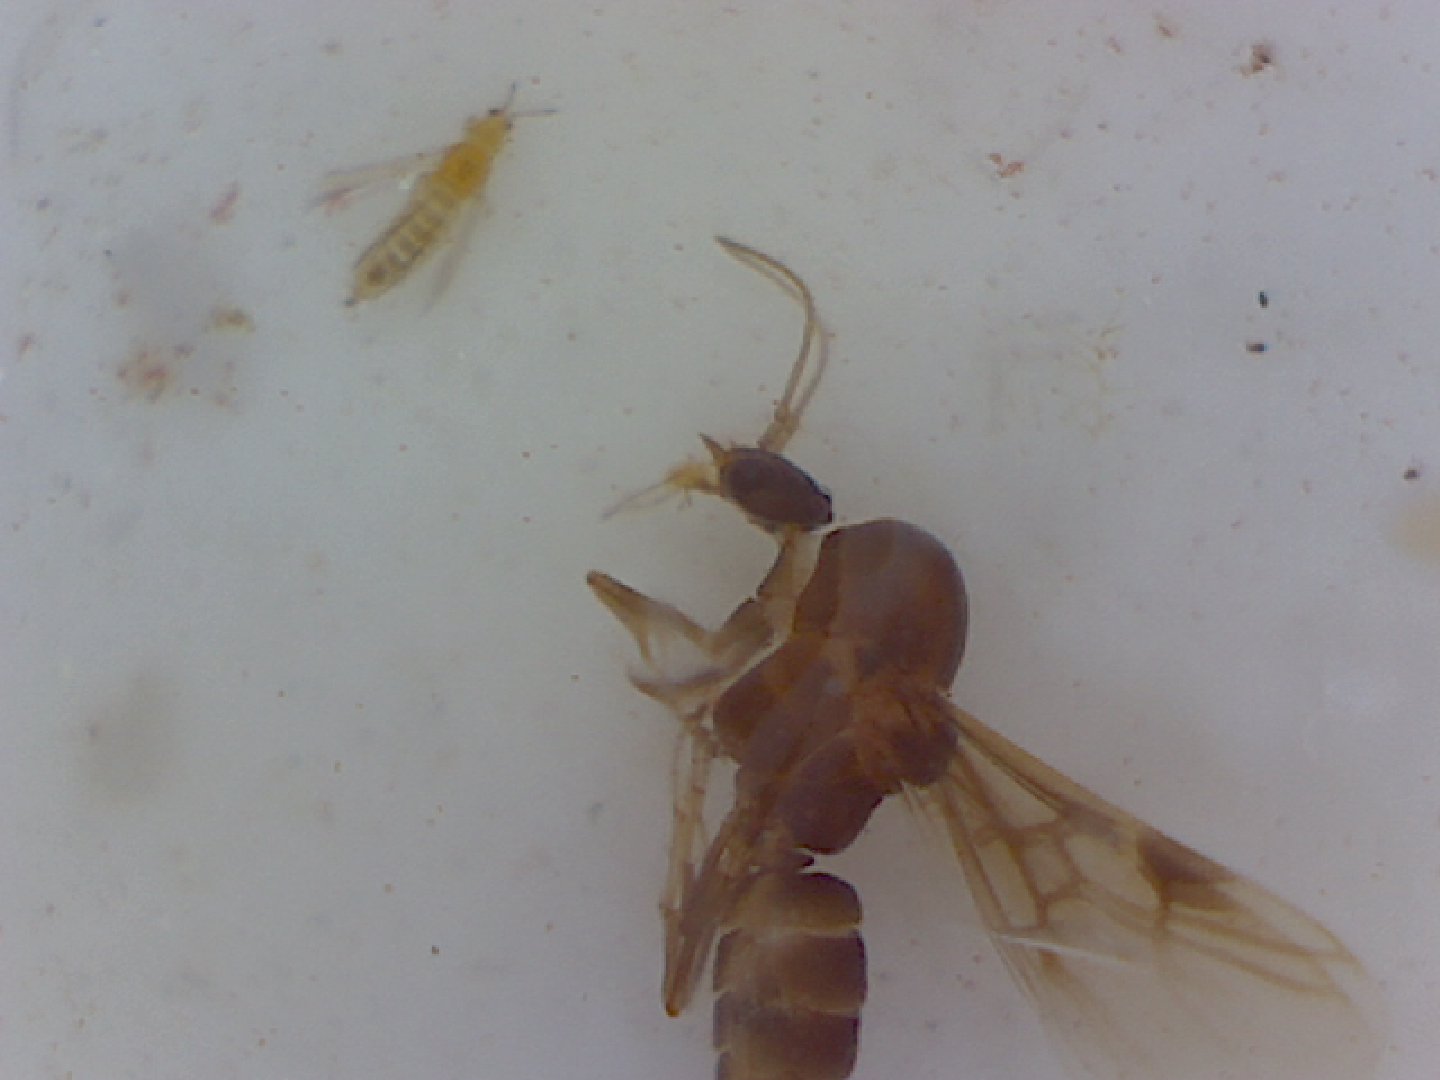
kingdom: Animalia
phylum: Arthropoda
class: Insecta
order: Hymenoptera
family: Formicidae
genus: Linepithema
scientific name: Linepithema humile
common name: Argentine ant
